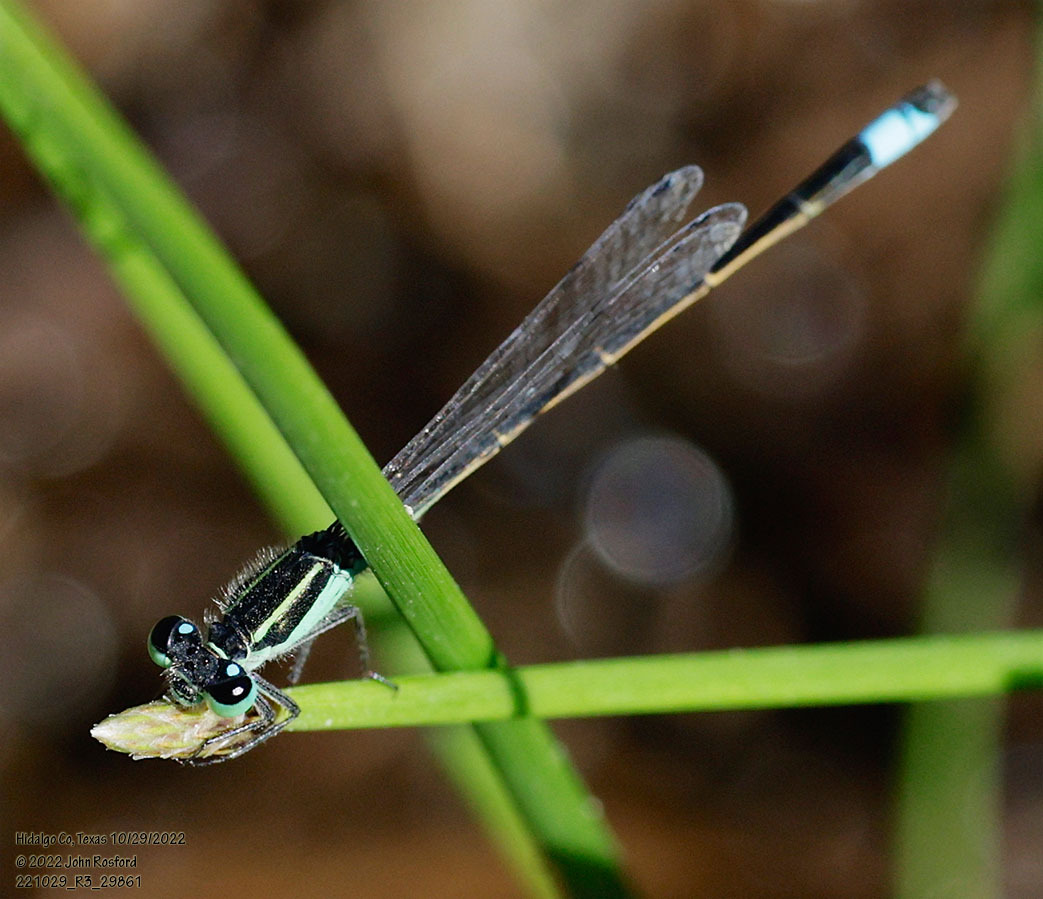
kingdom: Animalia
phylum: Arthropoda
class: Insecta
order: Odonata
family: Coenagrionidae
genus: Ischnura
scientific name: Ischnura ramburii
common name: Rambur's forktail
